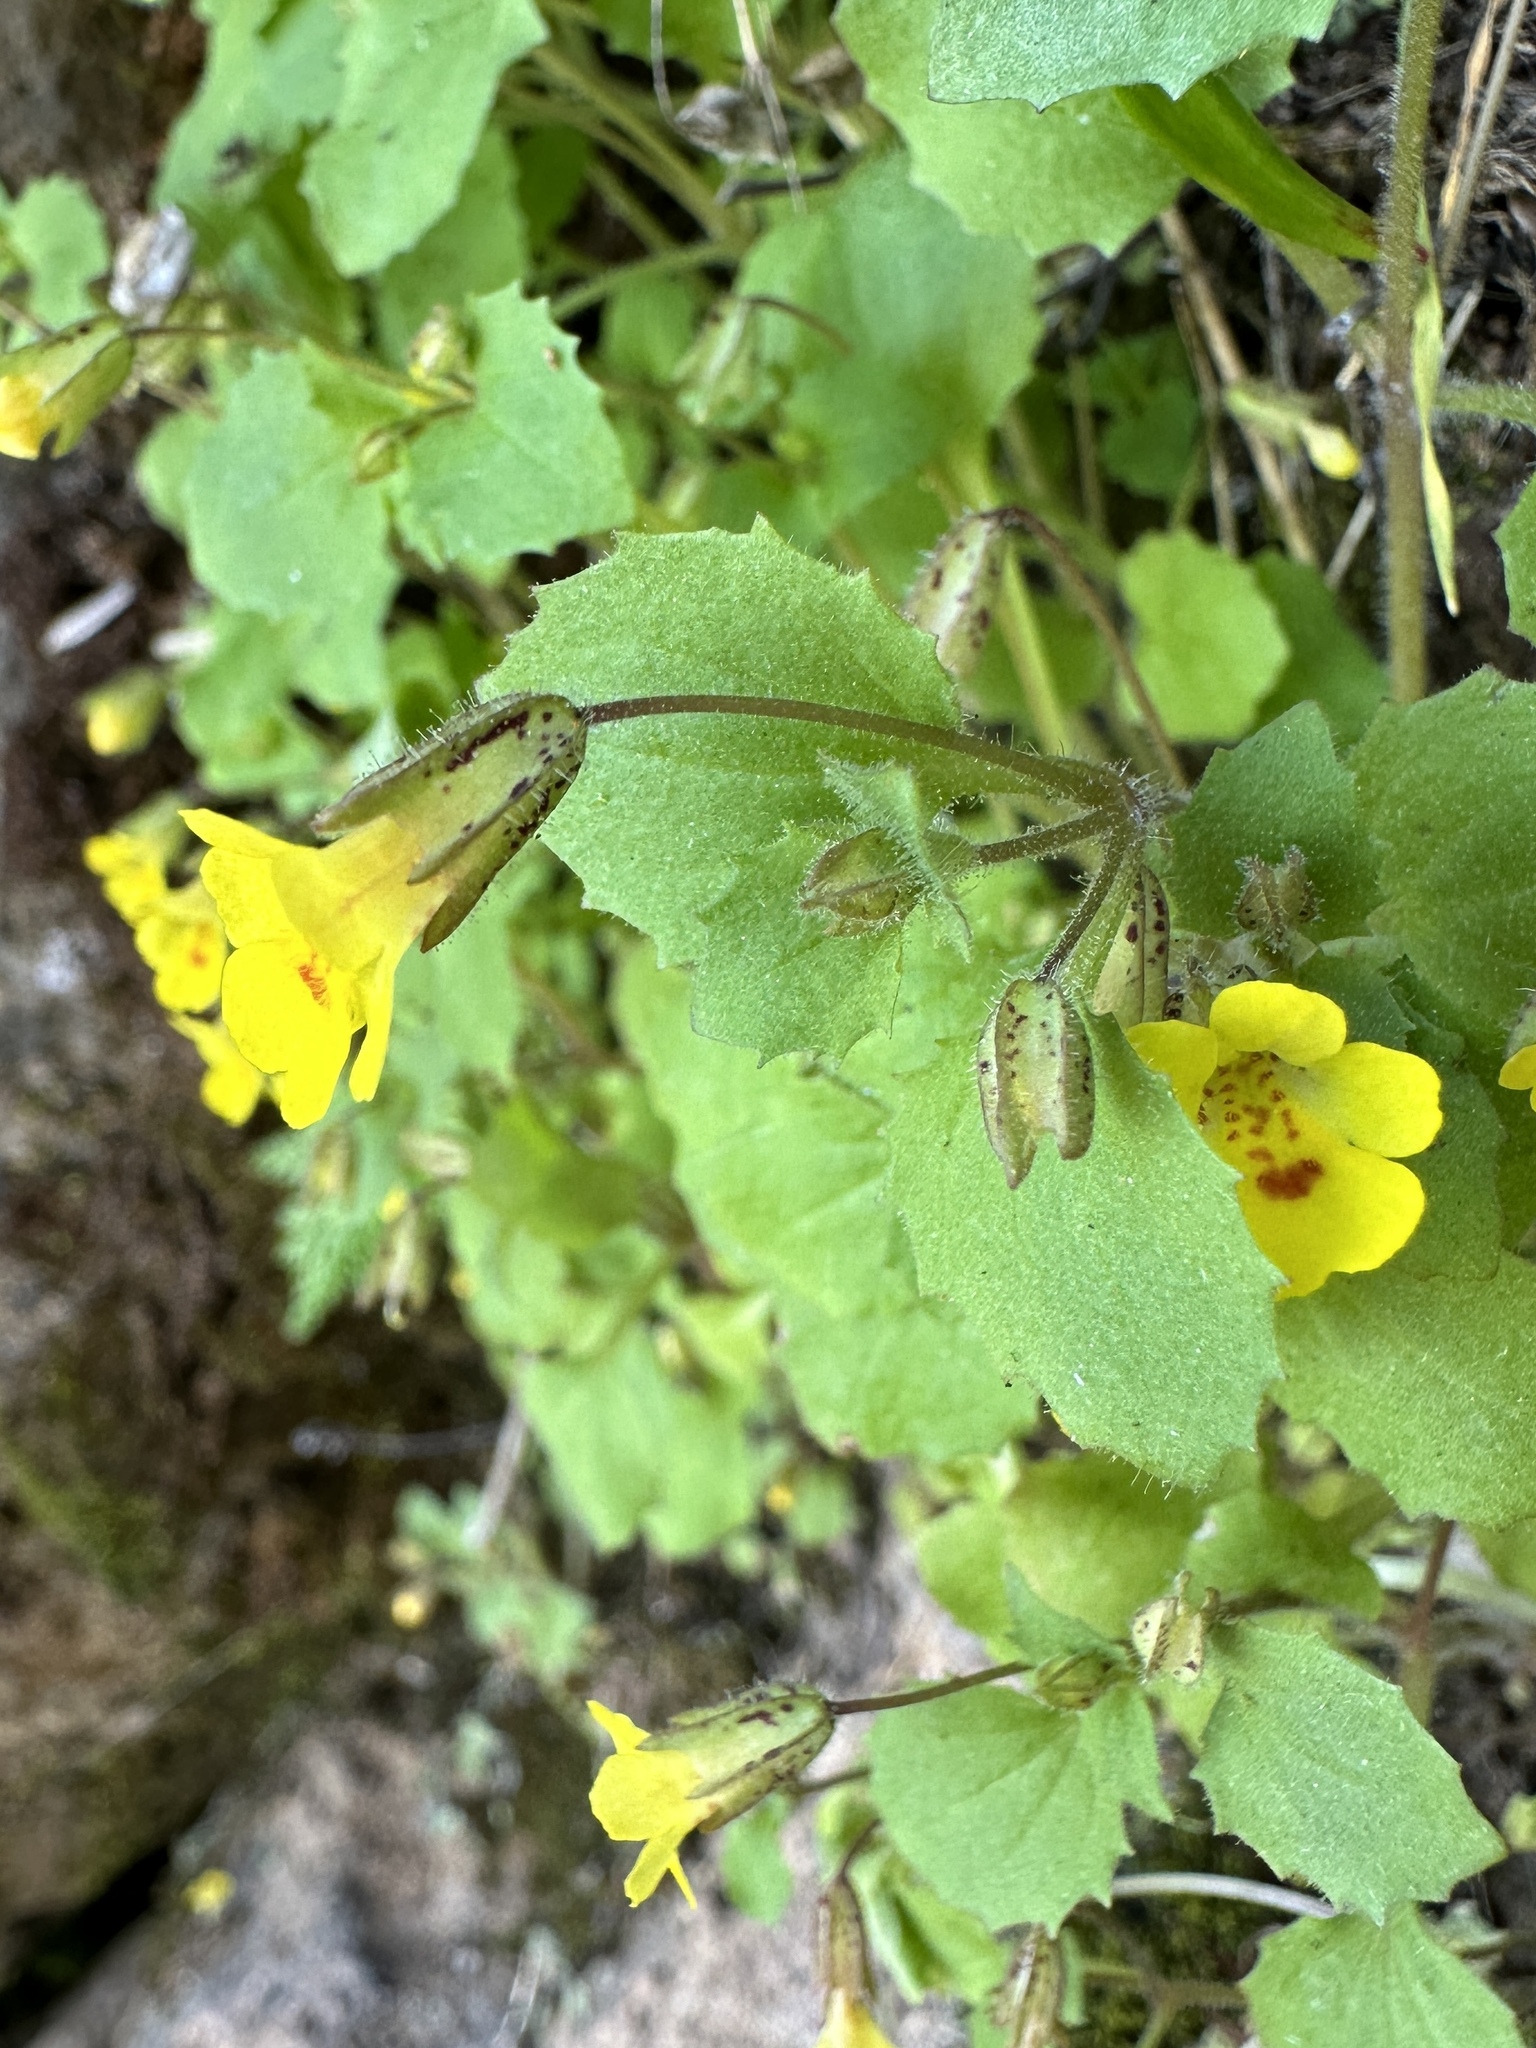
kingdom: Plantae
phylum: Tracheophyta
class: Magnoliopsida
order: Lamiales
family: Phrymaceae
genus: Erythranthe
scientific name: Erythranthe marmorata
